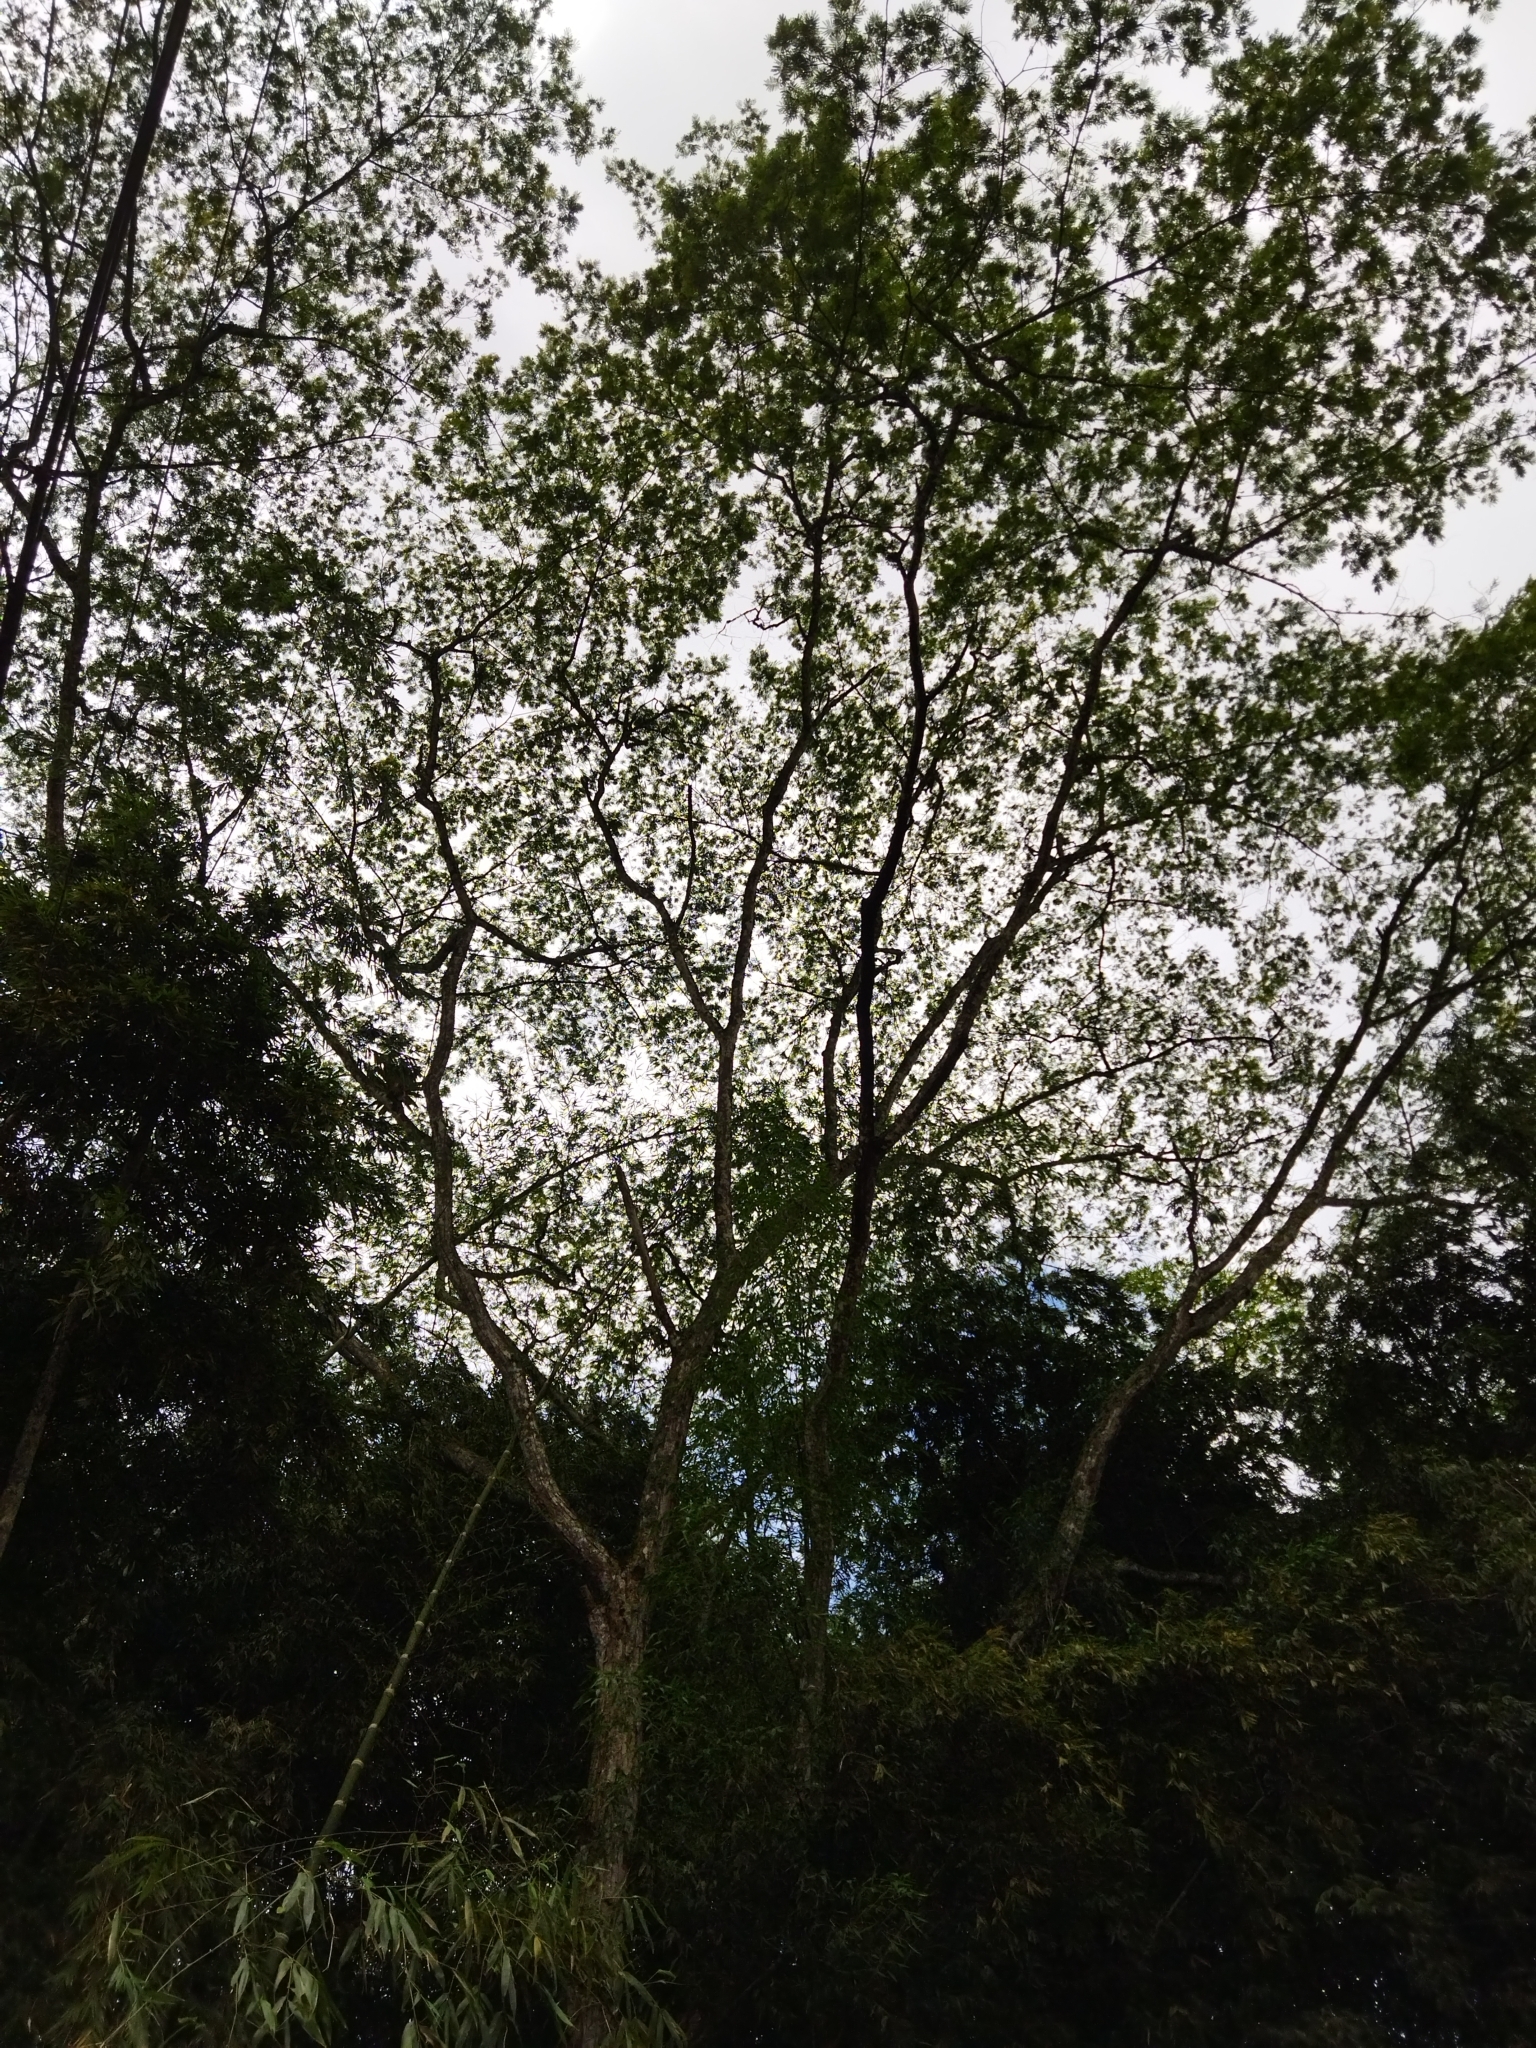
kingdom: Plantae
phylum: Tracheophyta
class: Magnoliopsida
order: Fabales
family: Fabaceae
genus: Albizia
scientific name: Albizia carbonaria
